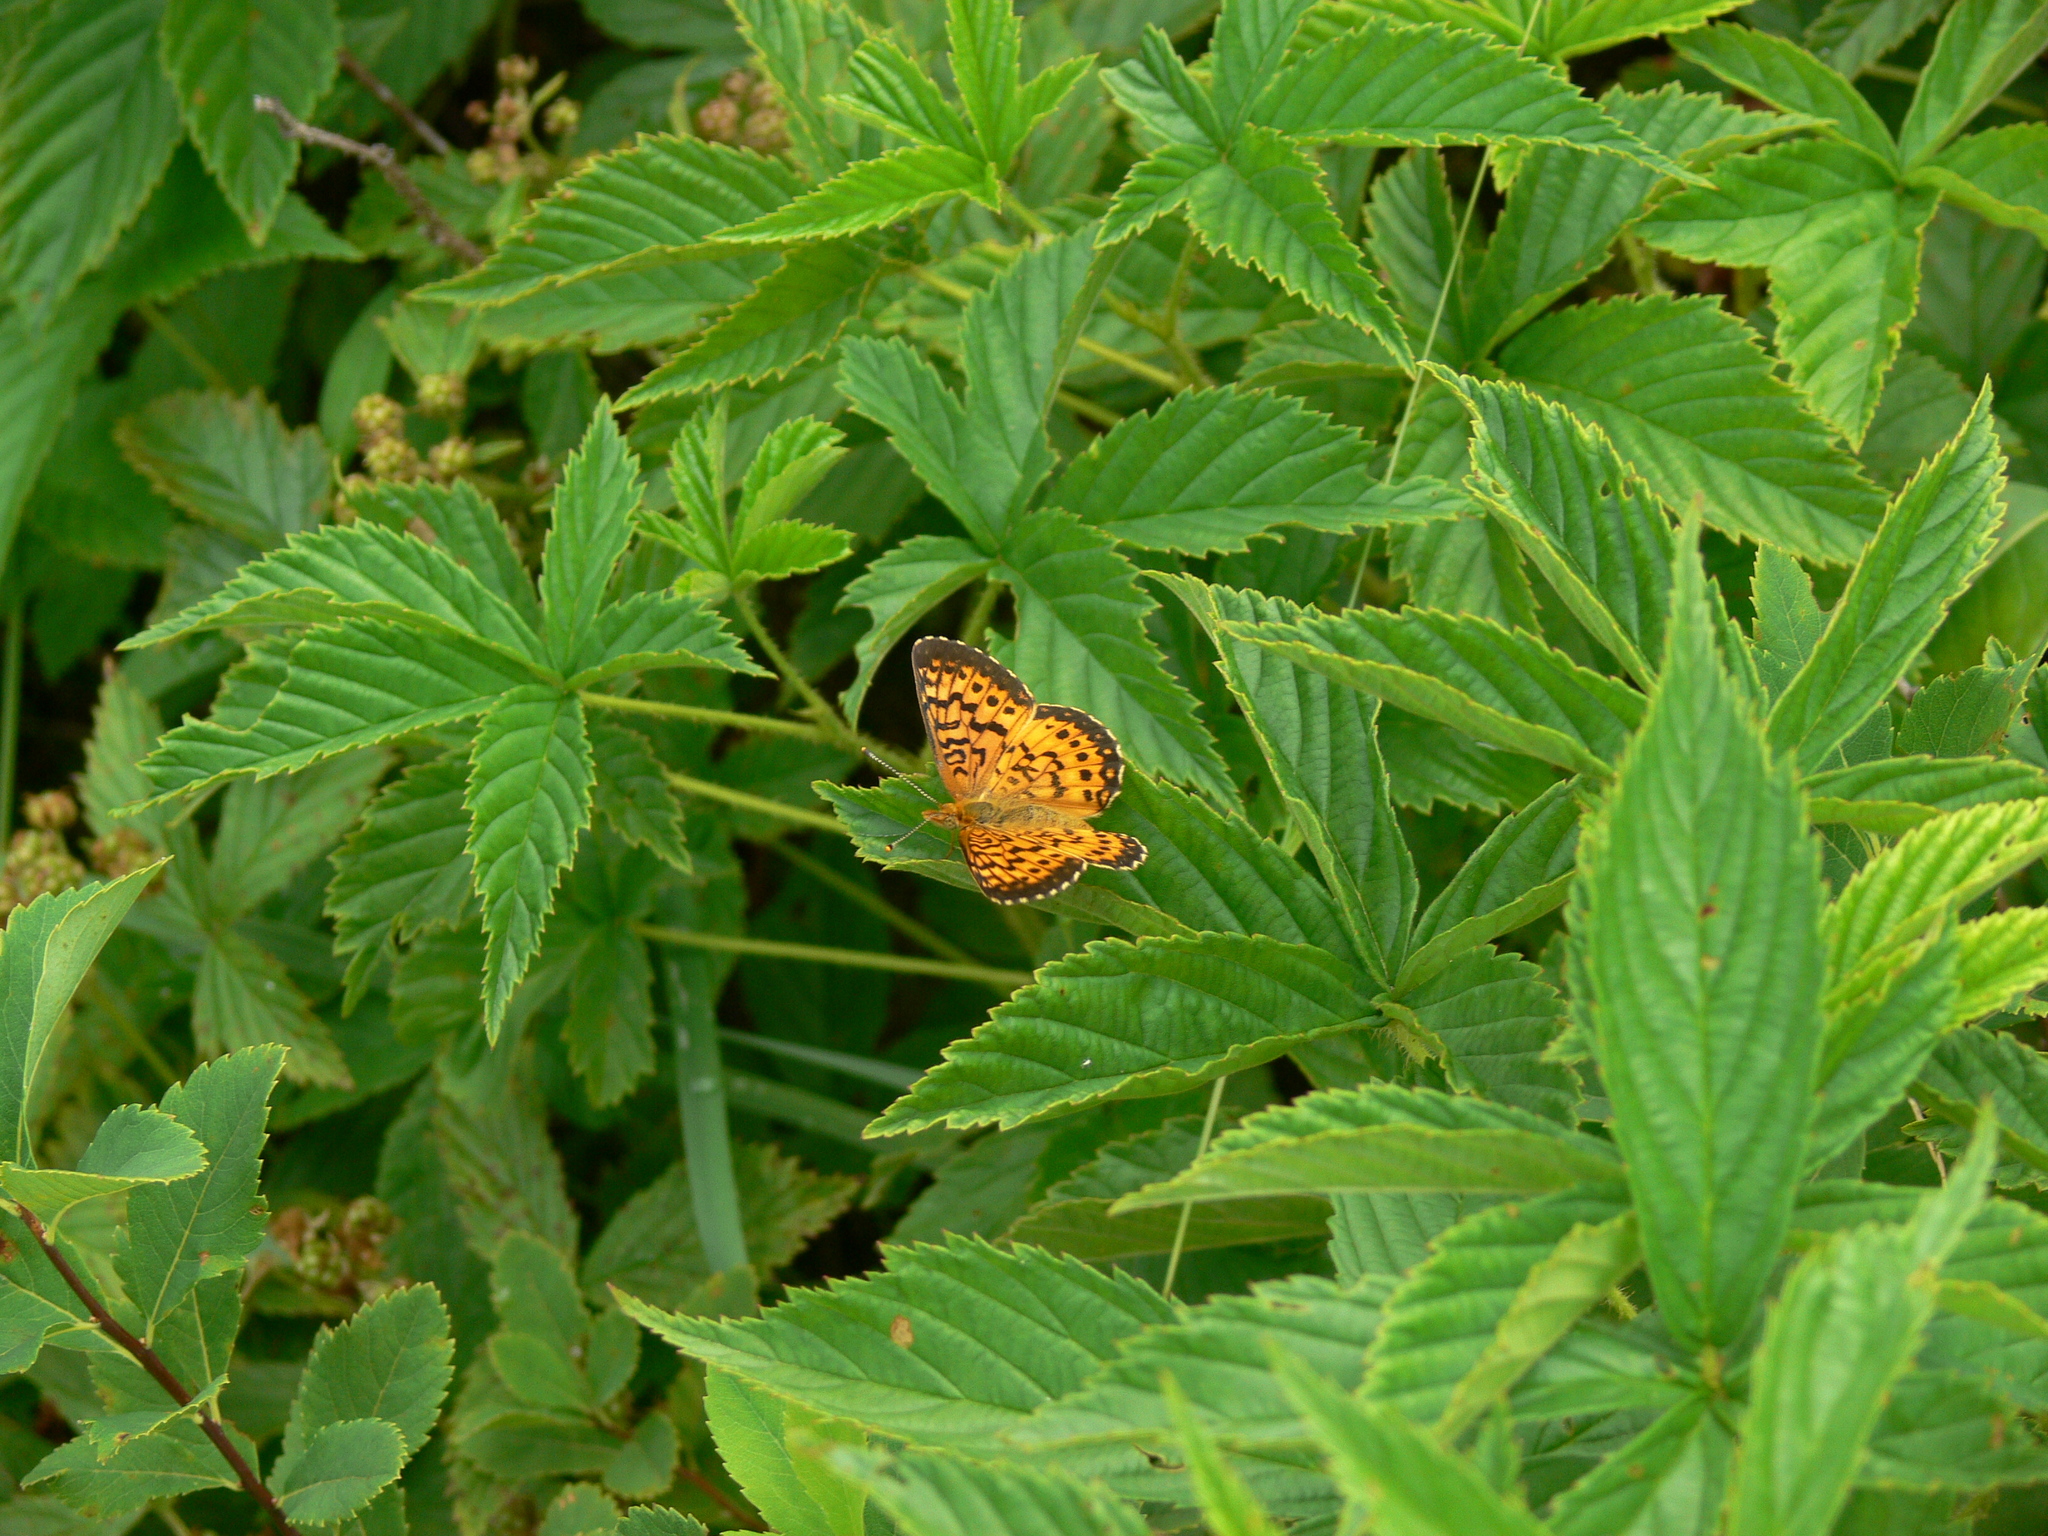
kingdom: Animalia
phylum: Arthropoda
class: Insecta
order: Lepidoptera
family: Nymphalidae
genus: Boloria
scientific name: Boloria
